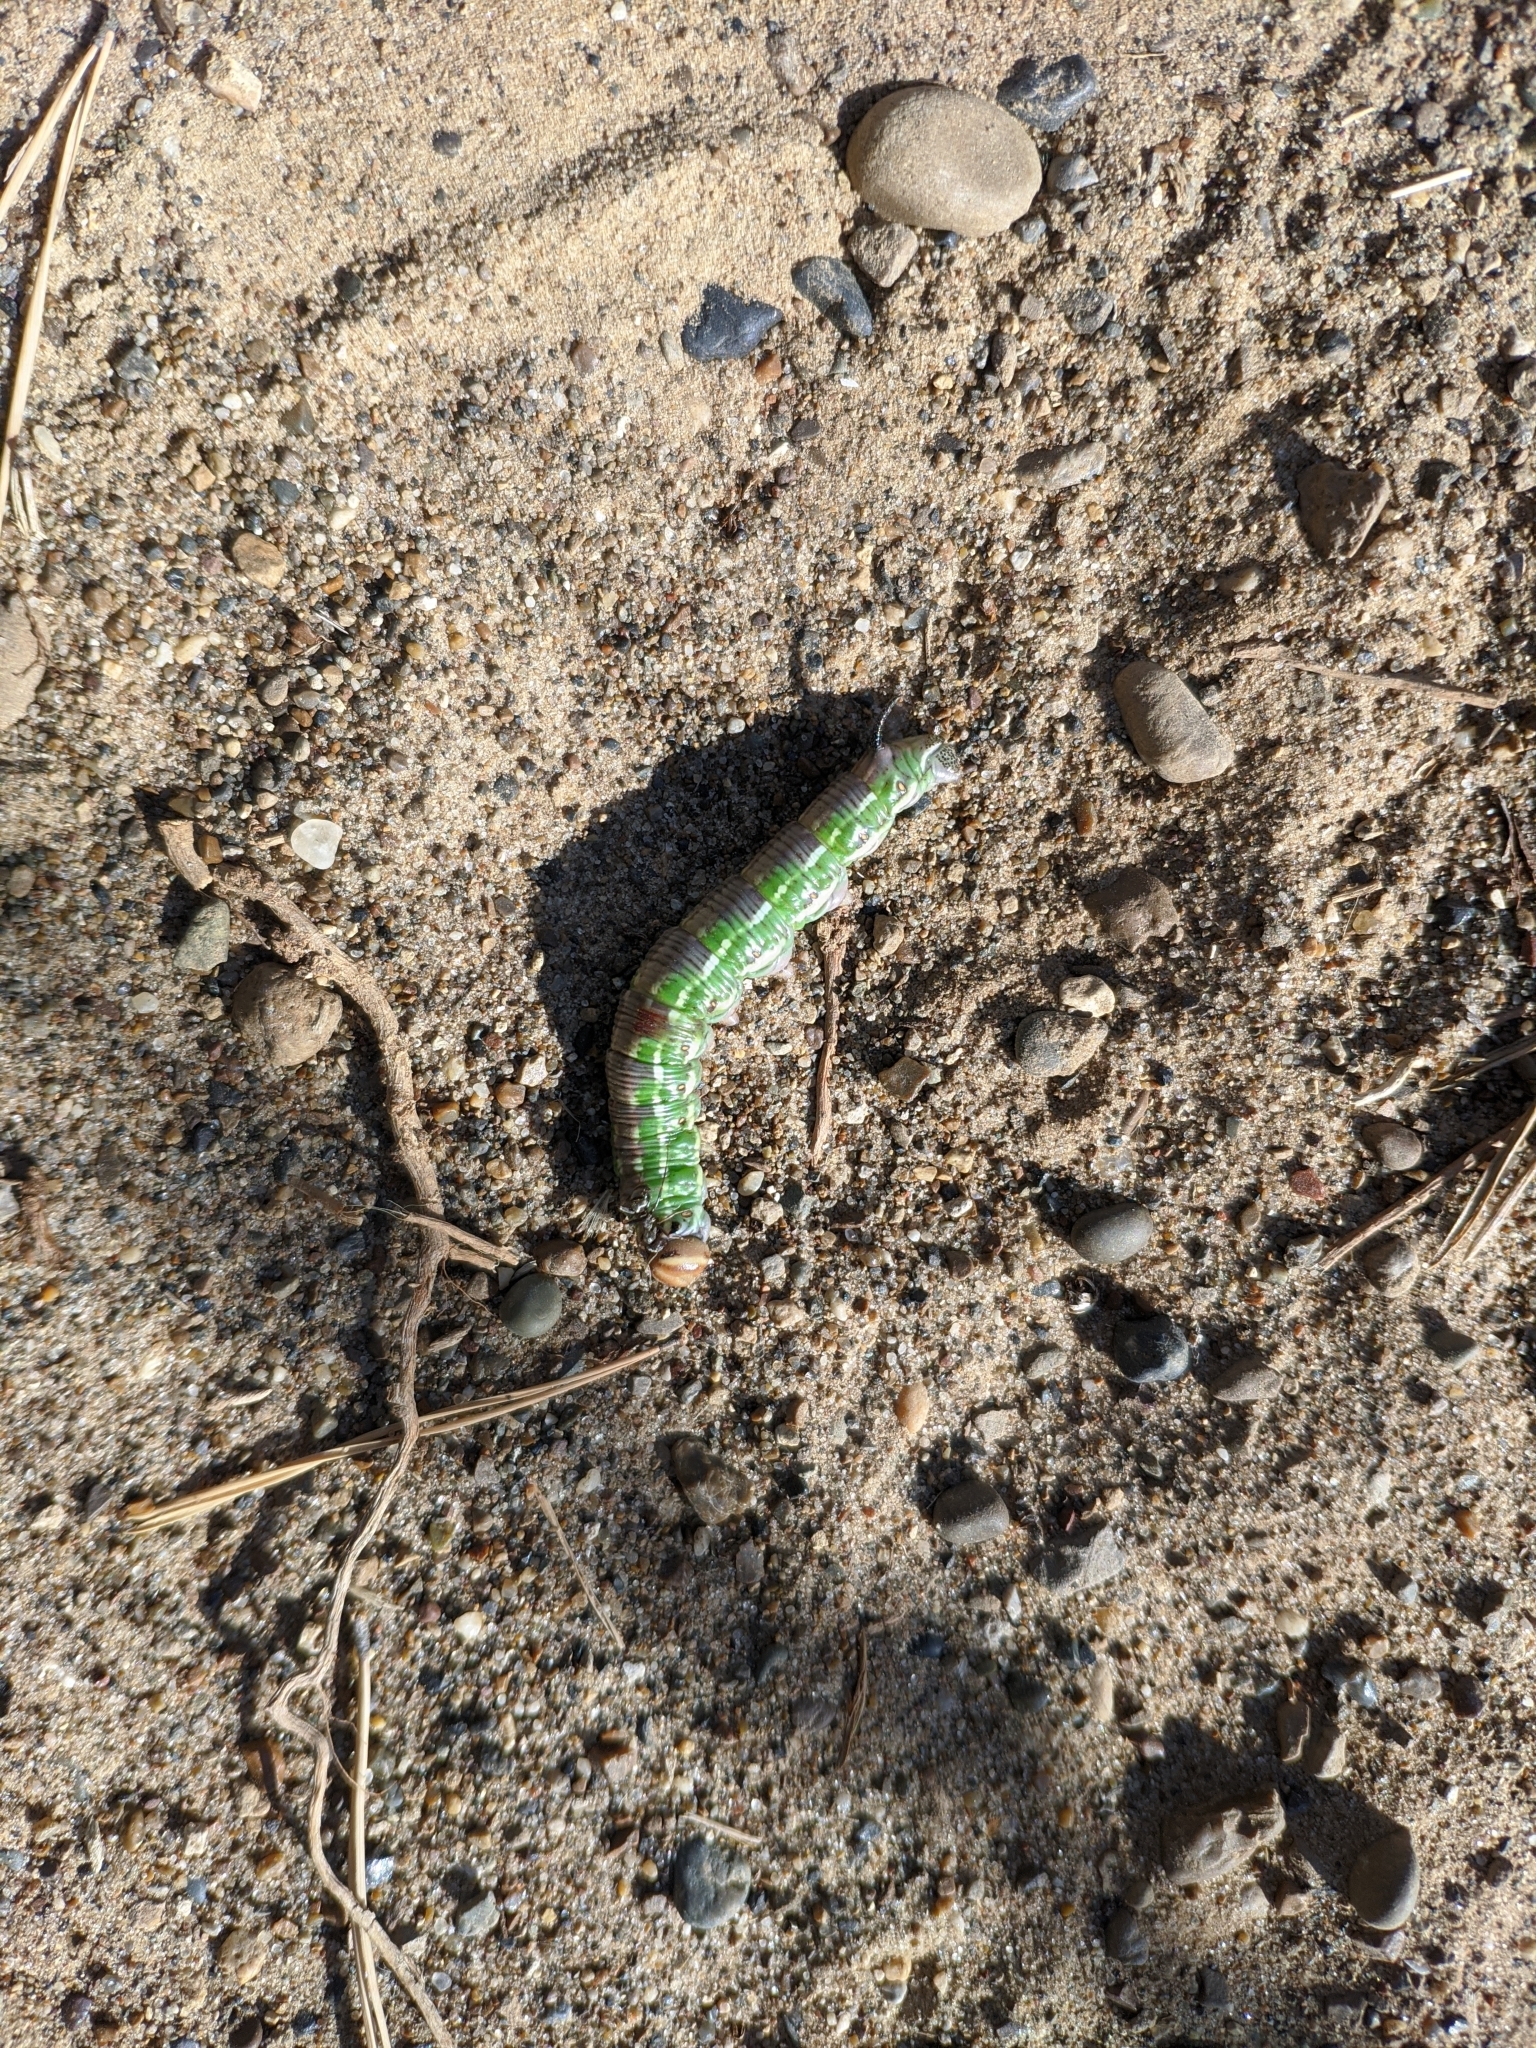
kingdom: Animalia
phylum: Arthropoda
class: Insecta
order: Lepidoptera
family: Sphingidae
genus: Sphinx
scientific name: Sphinx pinastri
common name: Pine hawk-moth
